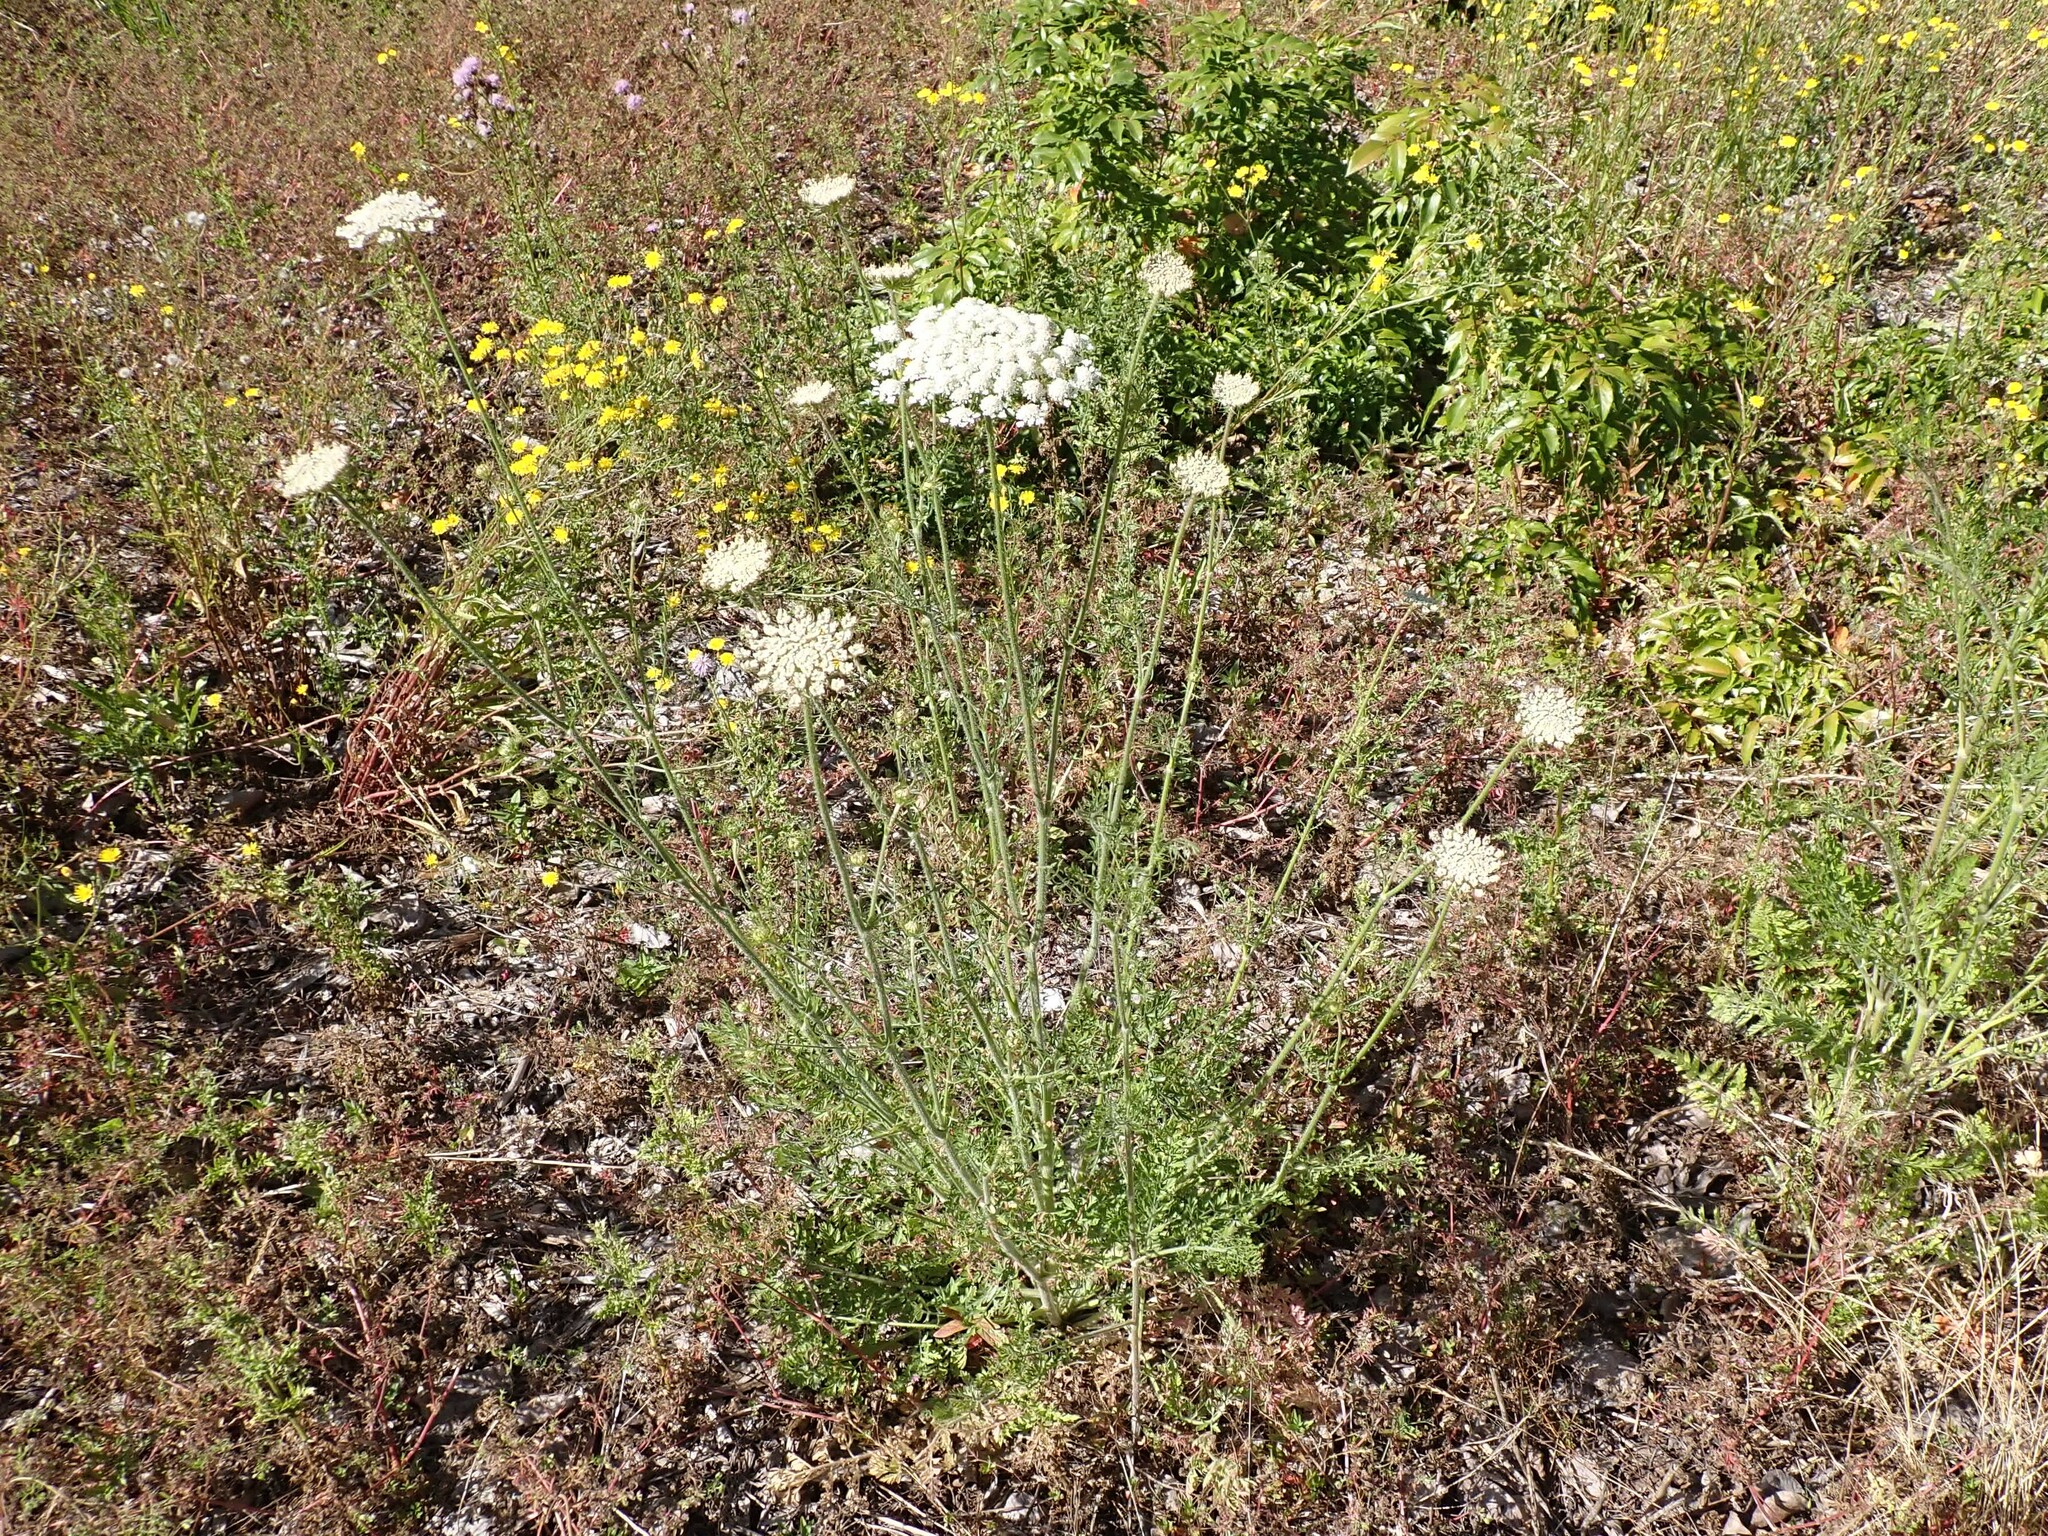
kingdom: Plantae
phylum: Tracheophyta
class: Magnoliopsida
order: Apiales
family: Apiaceae
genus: Daucus
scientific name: Daucus carota
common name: Wild carrot
